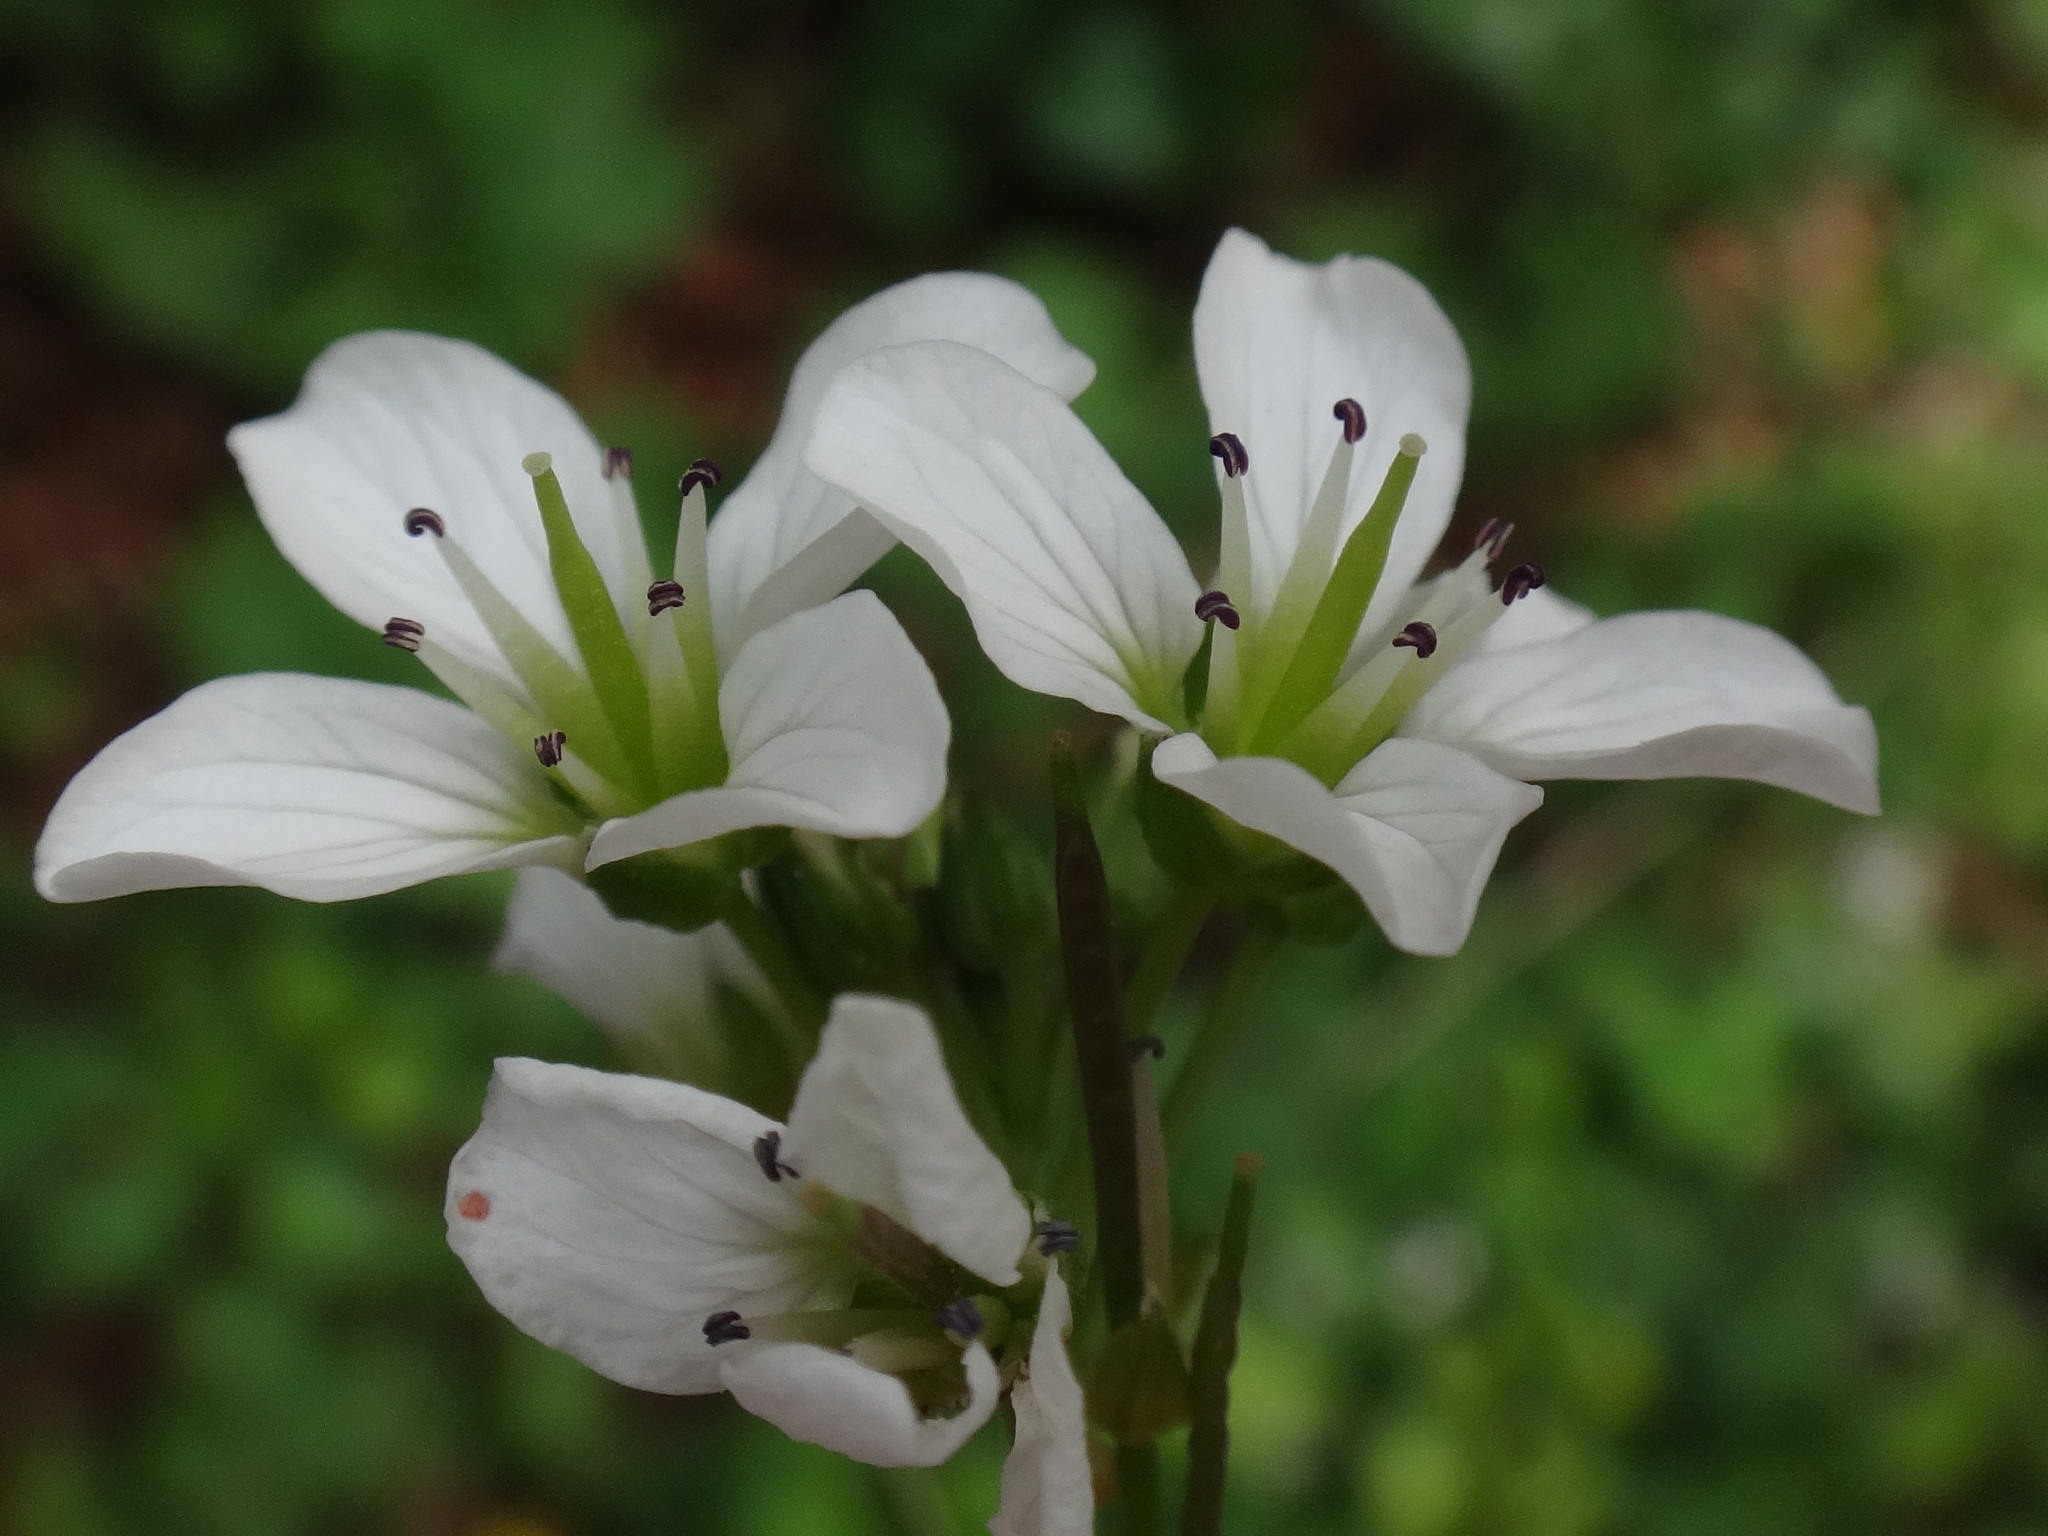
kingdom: Plantae
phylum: Tracheophyta
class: Magnoliopsida
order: Brassicales
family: Brassicaceae
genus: Cardamine
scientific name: Cardamine amara
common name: Large bitter-cress
